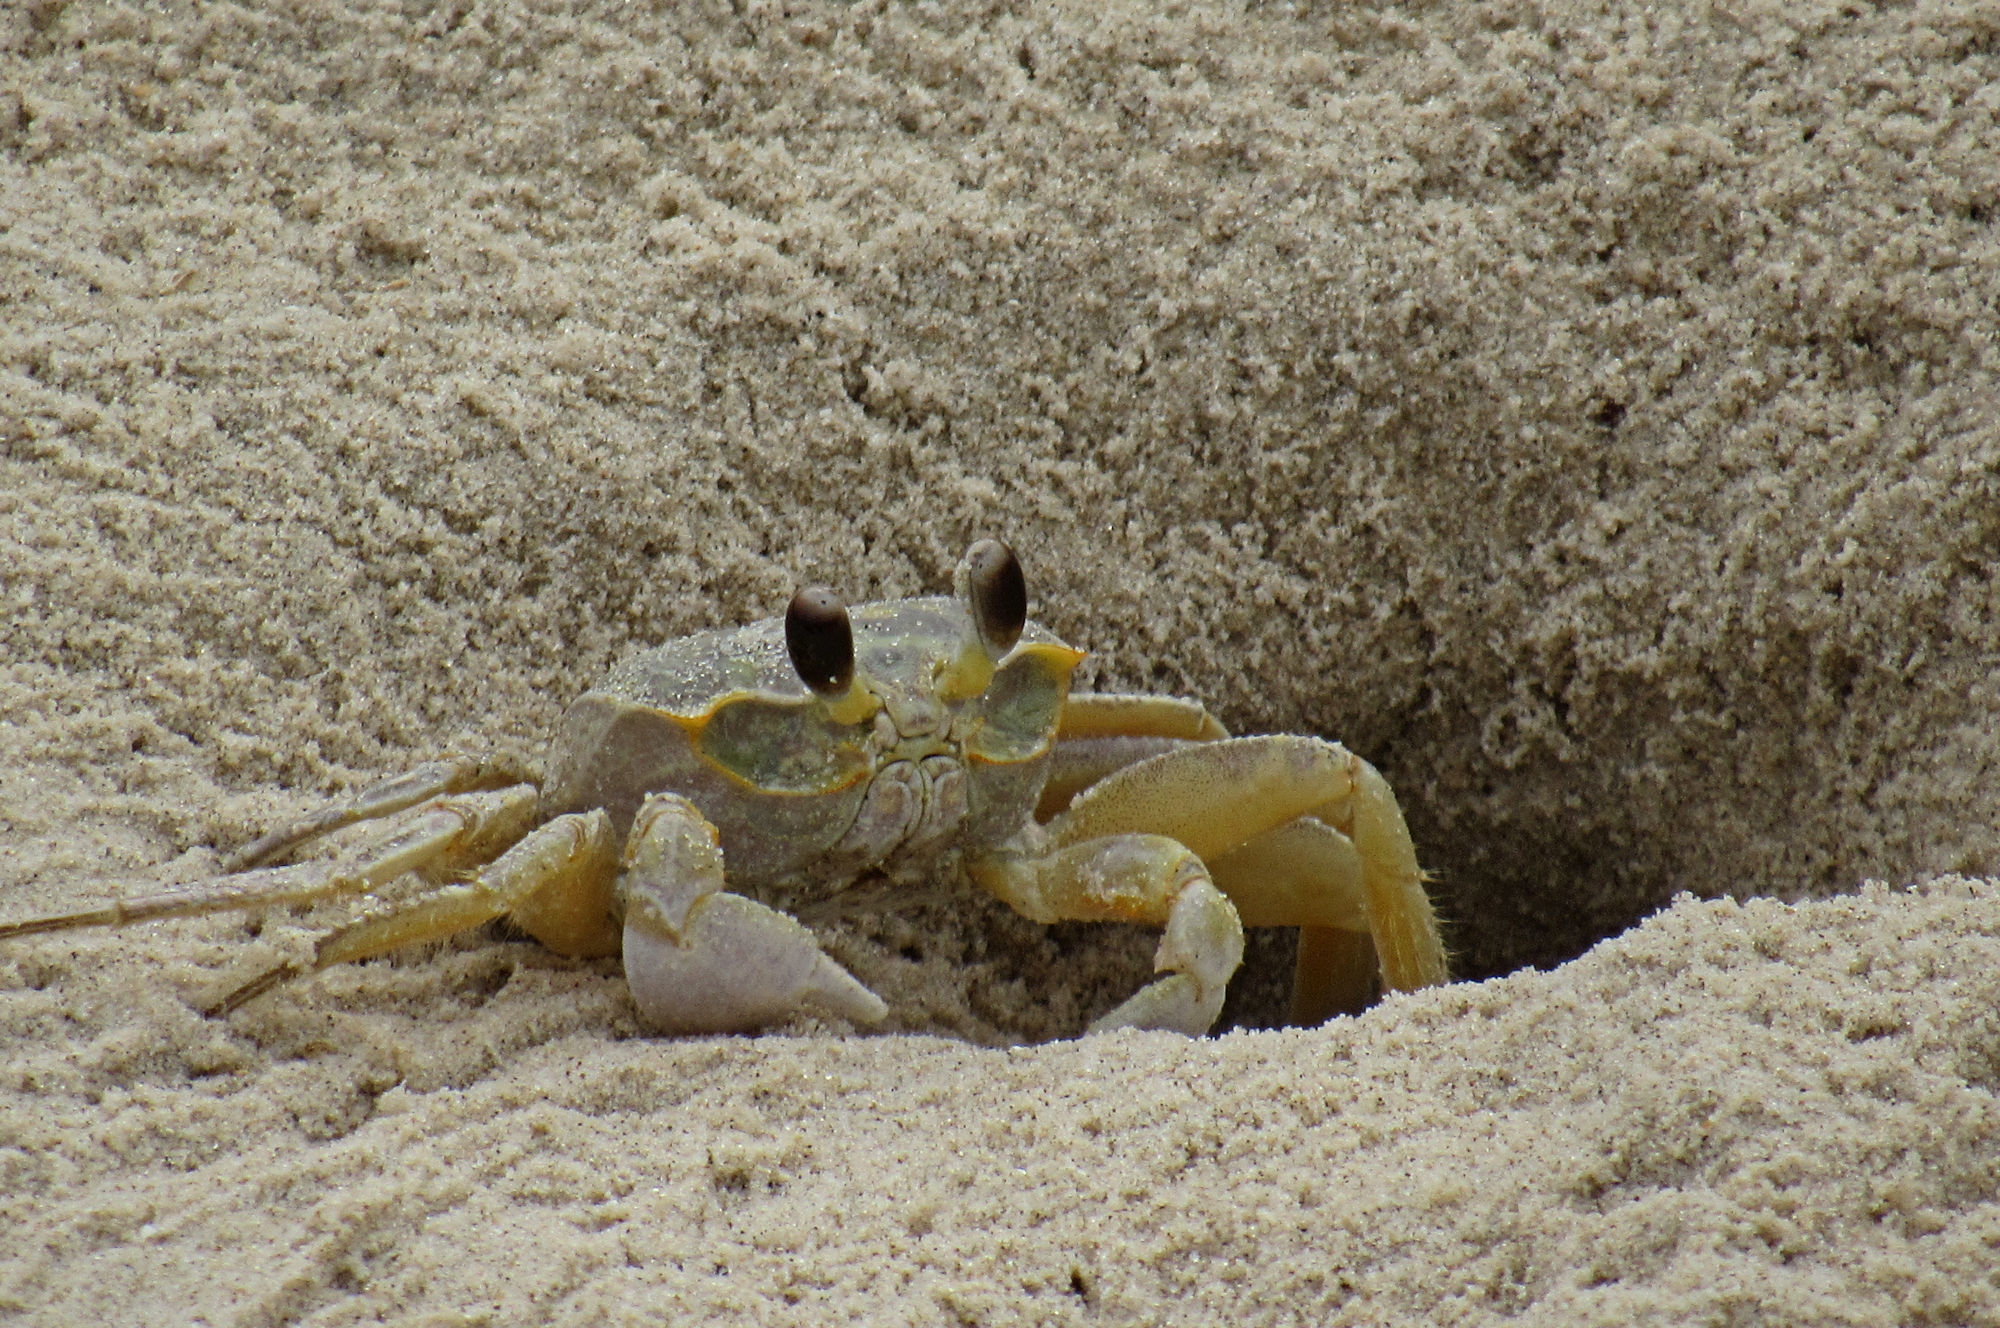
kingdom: Animalia
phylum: Arthropoda
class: Malacostraca
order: Decapoda
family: Ocypodidae
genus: Ocypode
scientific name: Ocypode quadrata
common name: Ghost crab
